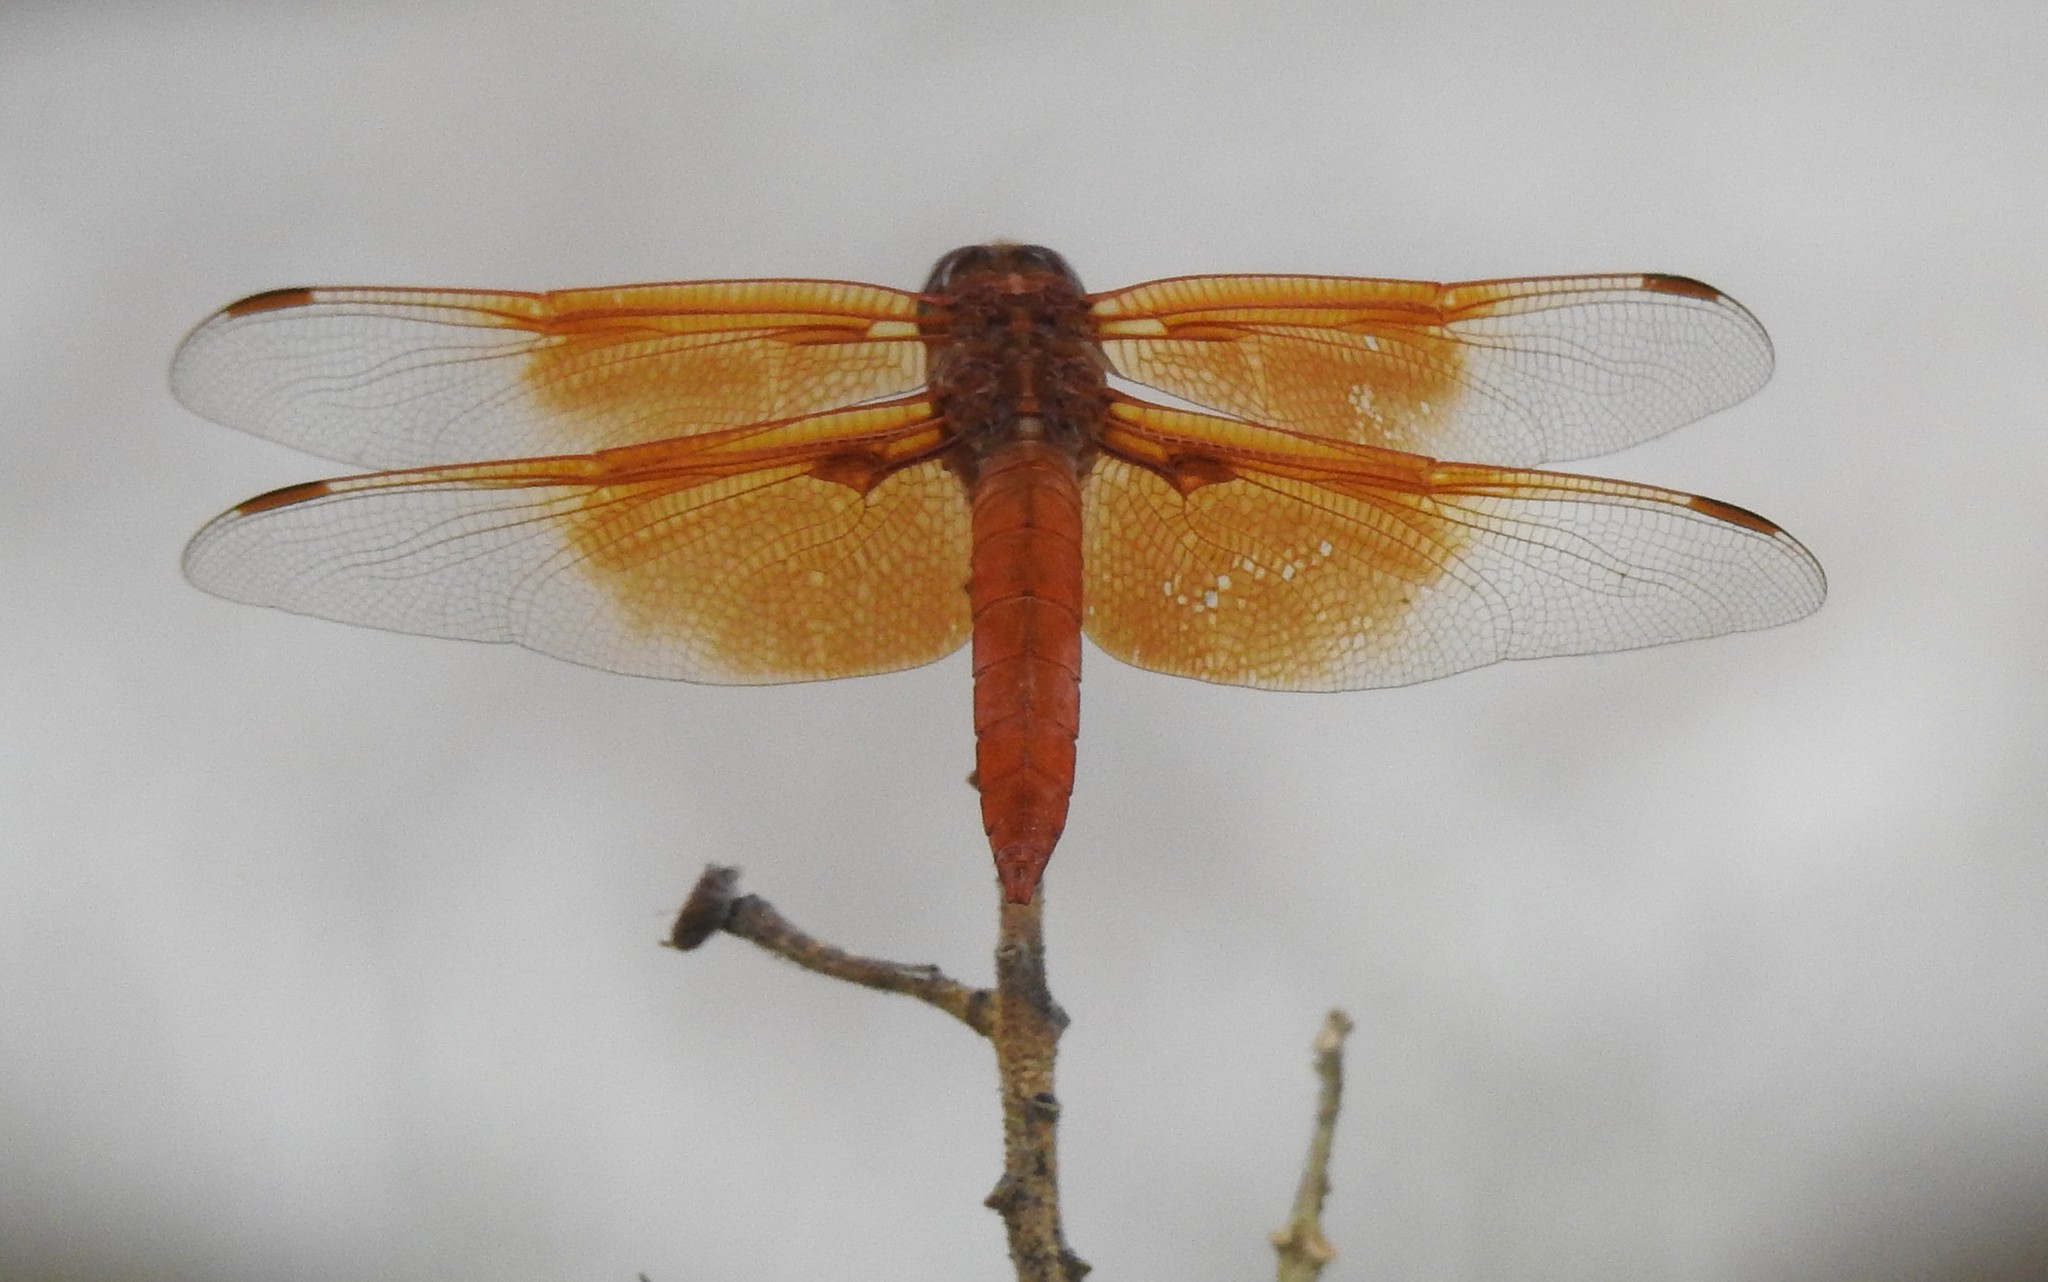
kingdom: Animalia
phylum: Arthropoda
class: Insecta
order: Odonata
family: Libellulidae
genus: Libellula
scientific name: Libellula saturata
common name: Flame skimmer
